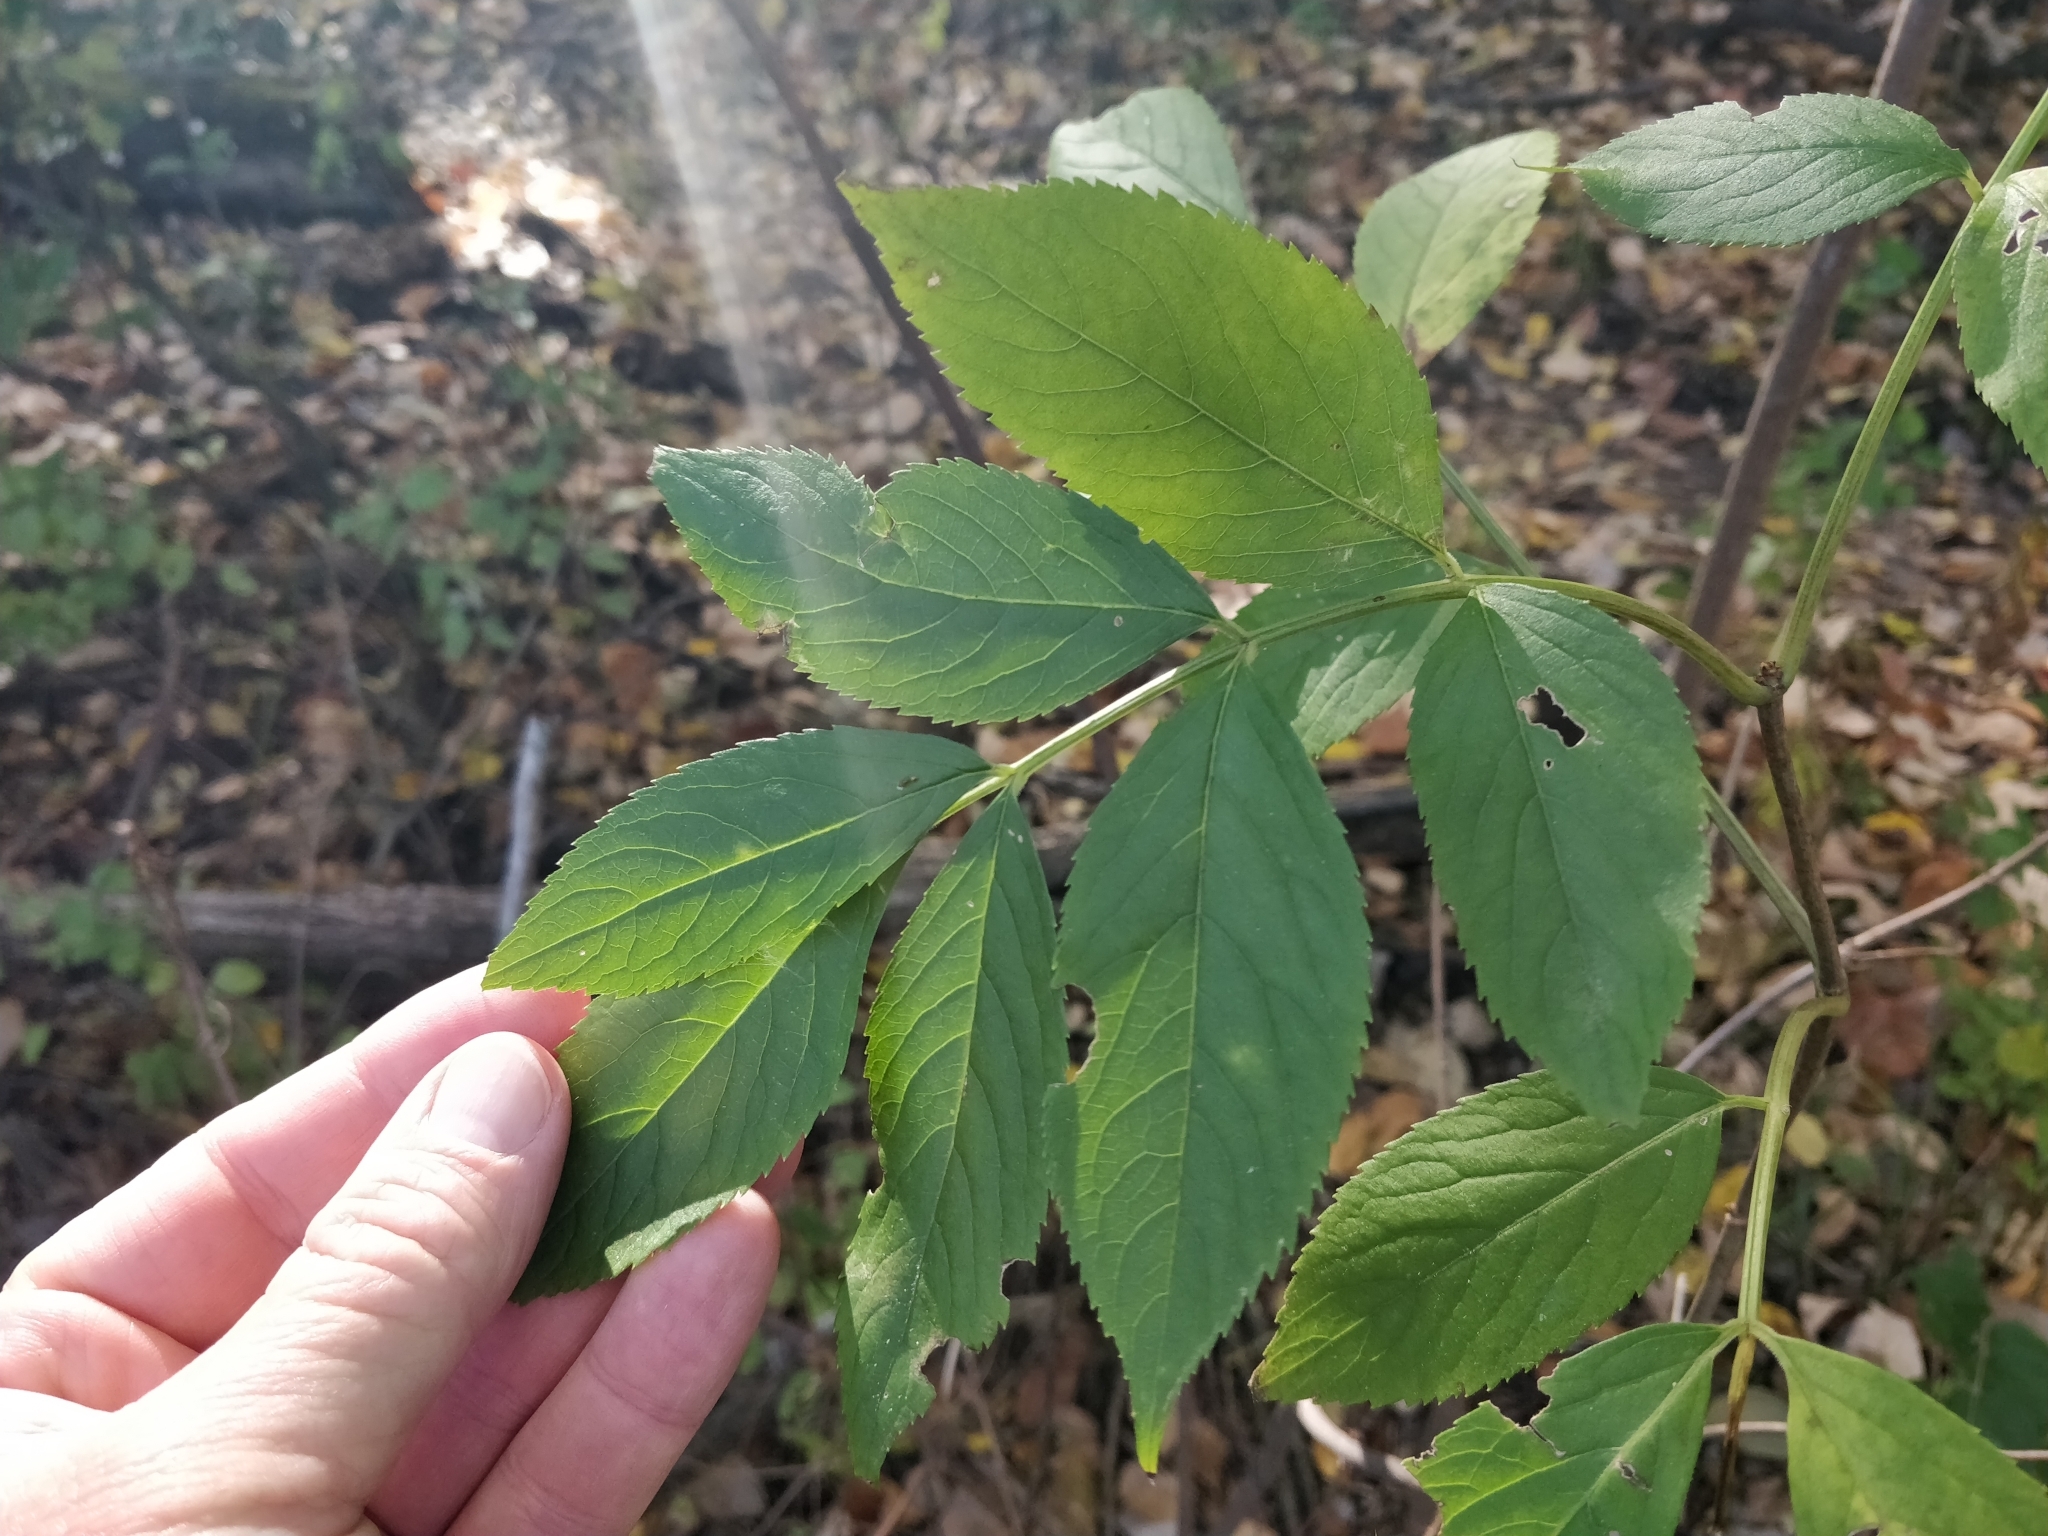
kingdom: Plantae
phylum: Tracheophyta
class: Magnoliopsida
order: Dipsacales
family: Viburnaceae
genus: Sambucus
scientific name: Sambucus canadensis
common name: American elder
